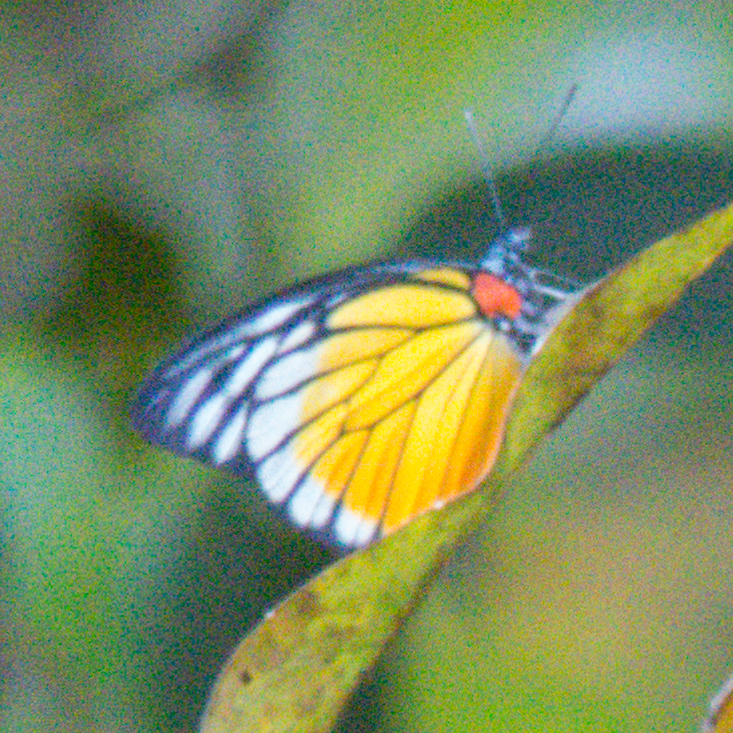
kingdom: Animalia
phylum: Arthropoda
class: Insecta
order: Lepidoptera
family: Pieridae
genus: Prioneris
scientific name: Prioneris
